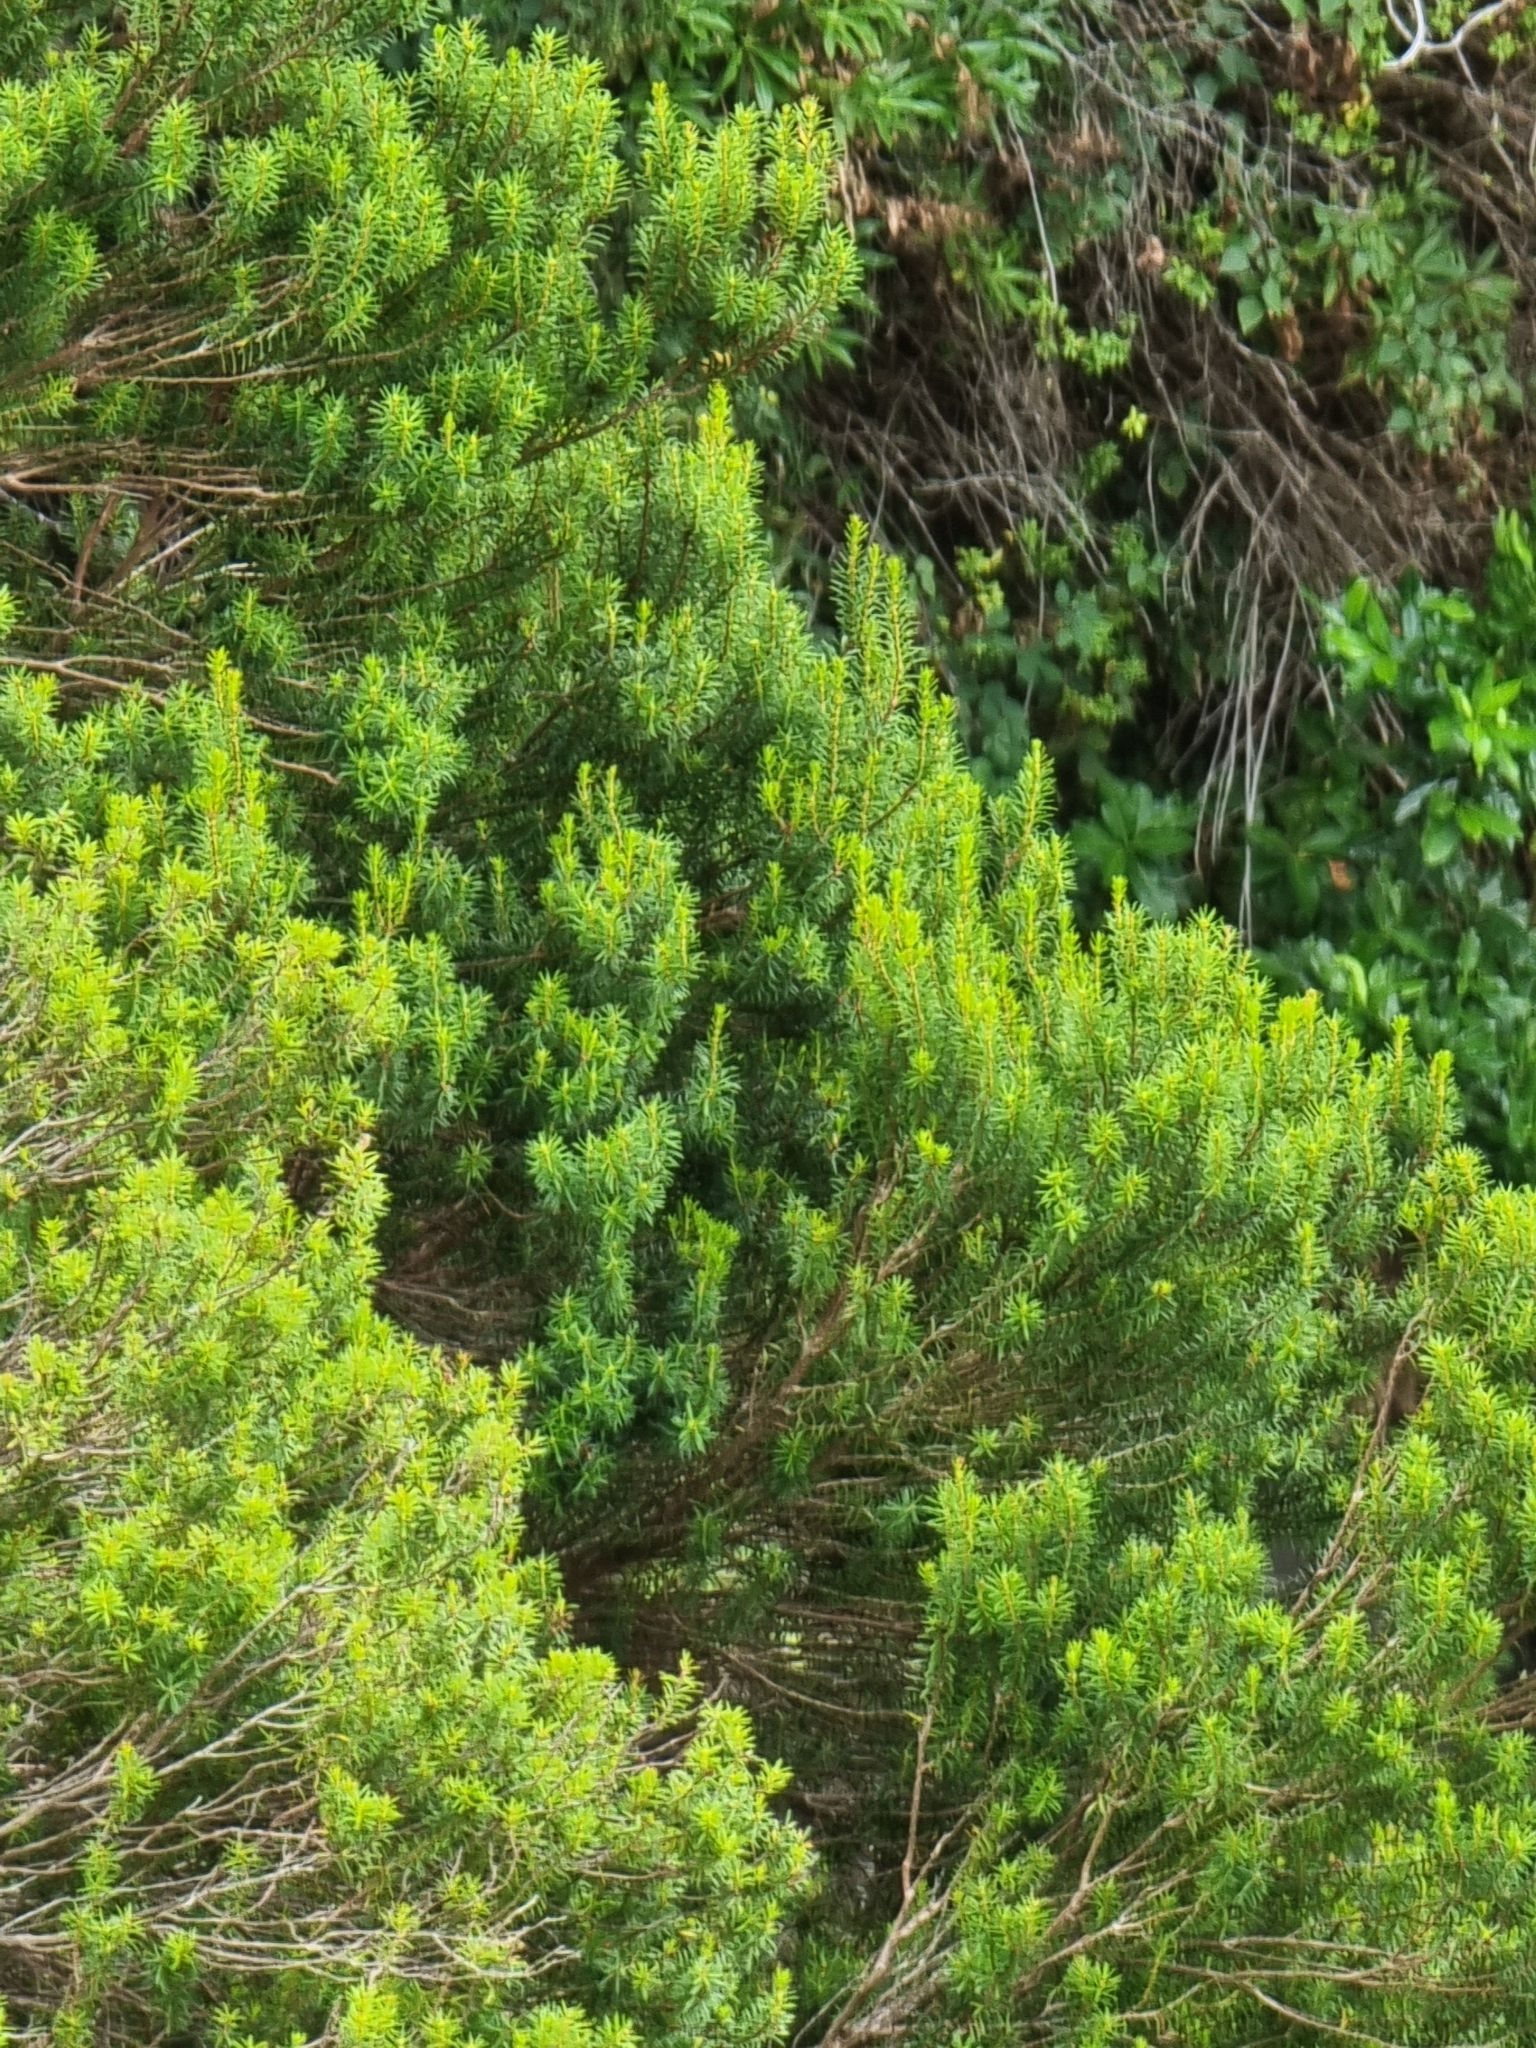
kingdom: Plantae
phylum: Tracheophyta
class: Magnoliopsida
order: Ericales
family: Ericaceae
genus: Erica
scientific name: Erica platycodon
